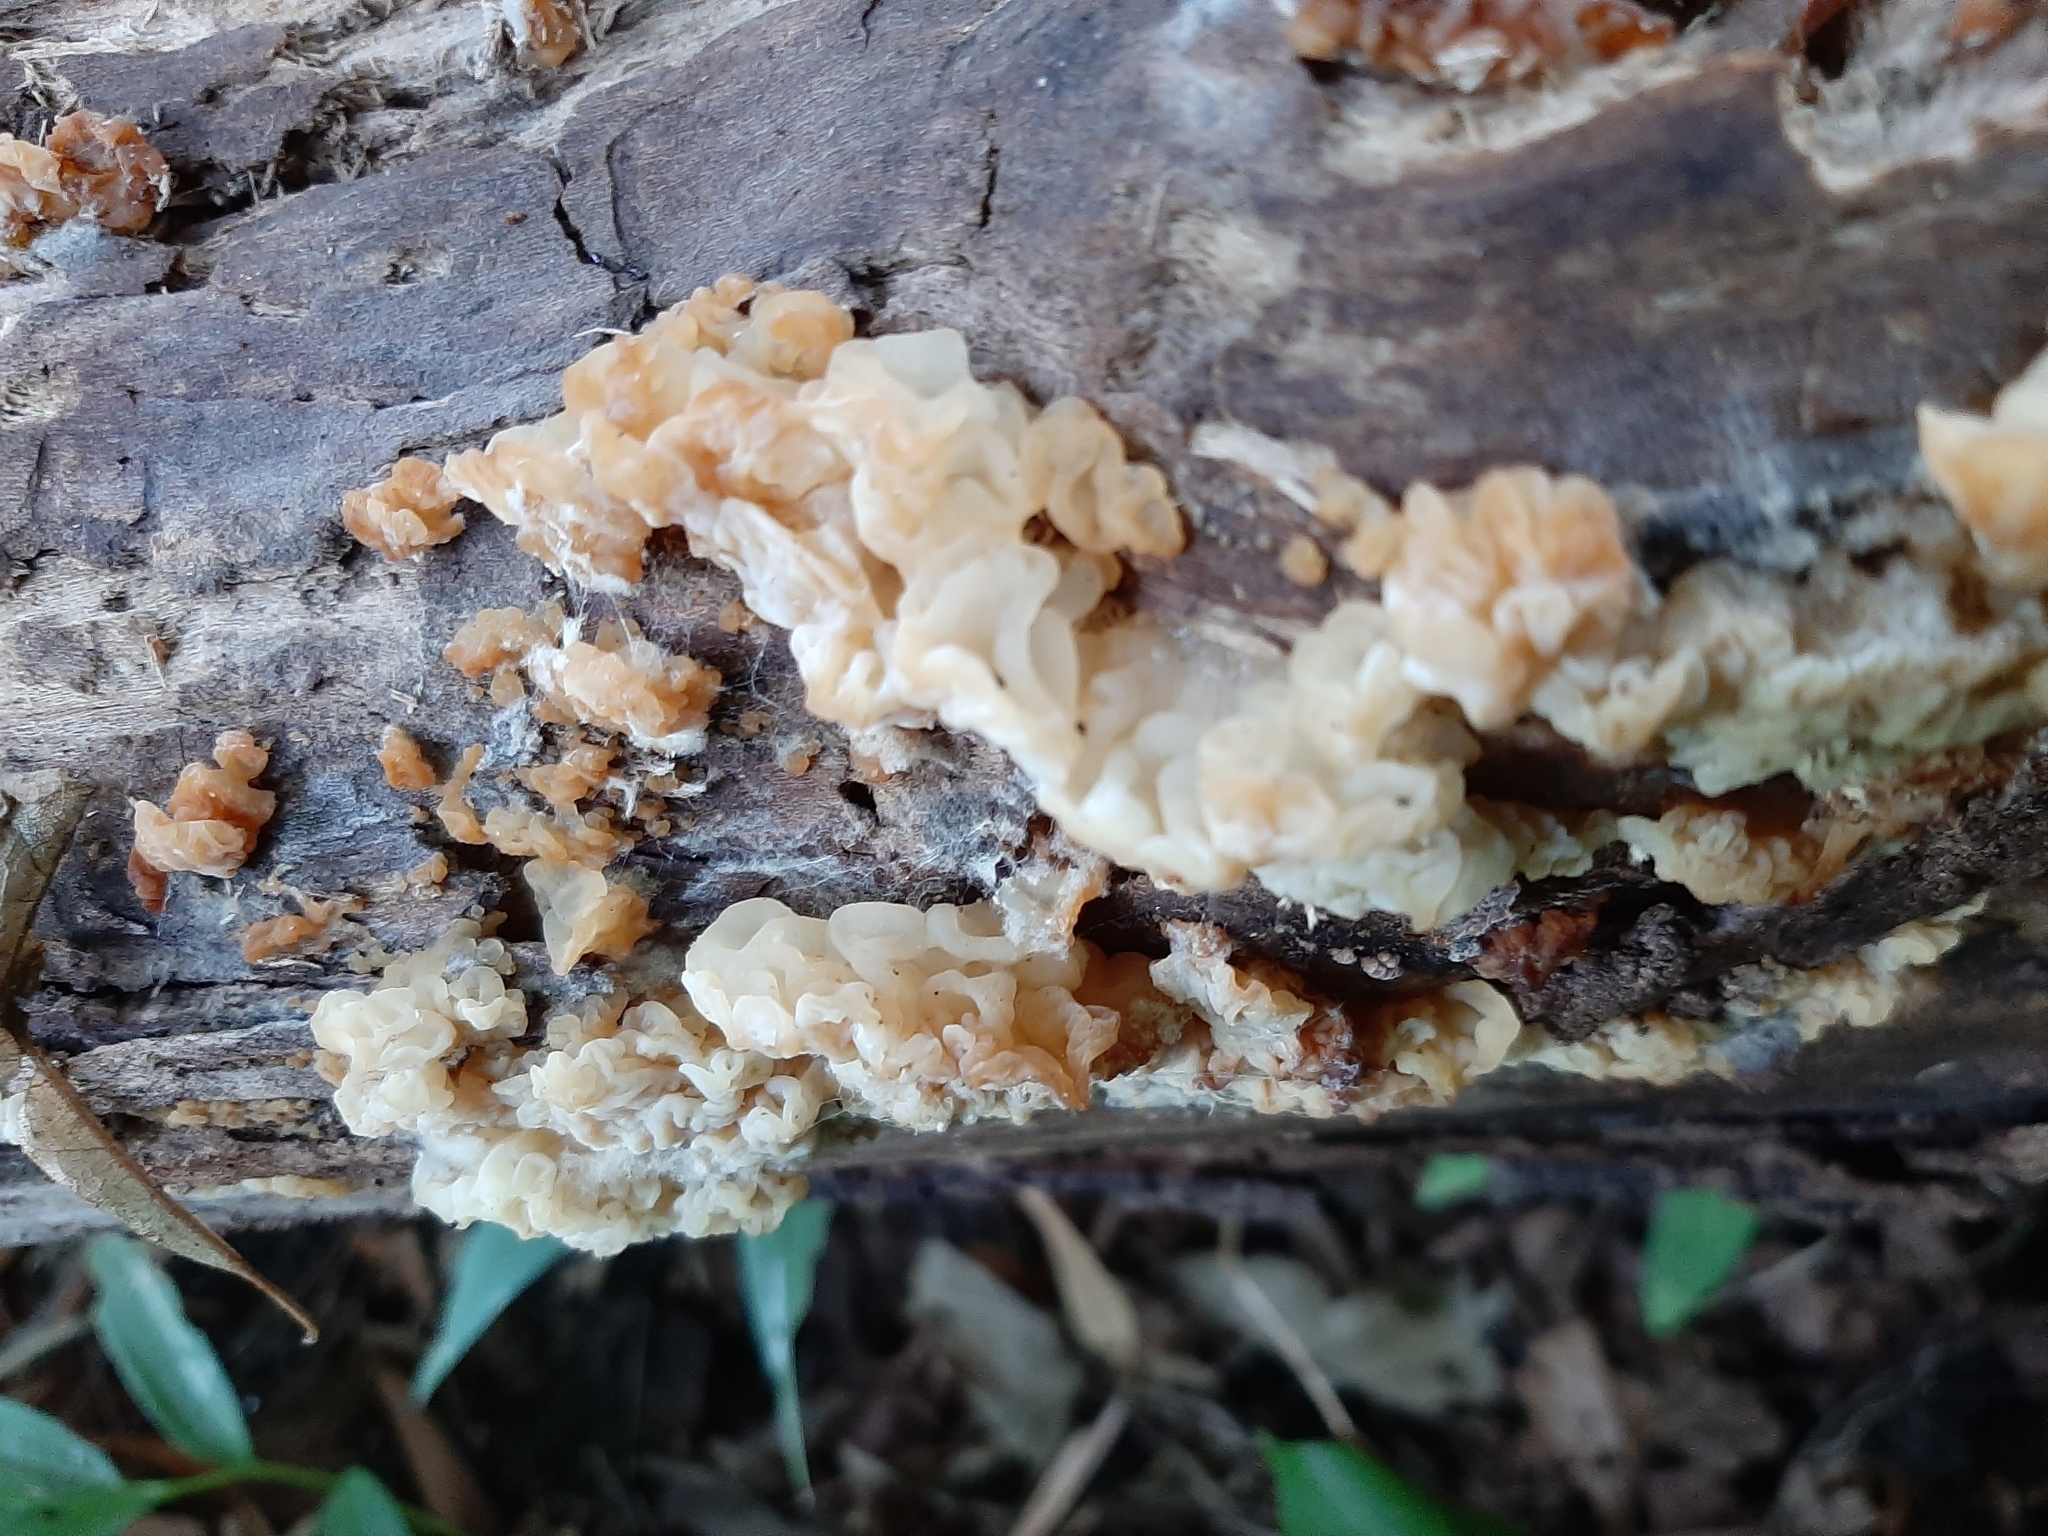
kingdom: Fungi
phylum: Basidiomycota
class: Agaricomycetes
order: Auriculariales
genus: Ductifera
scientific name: Ductifera pululahuana
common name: White jelly fungus
